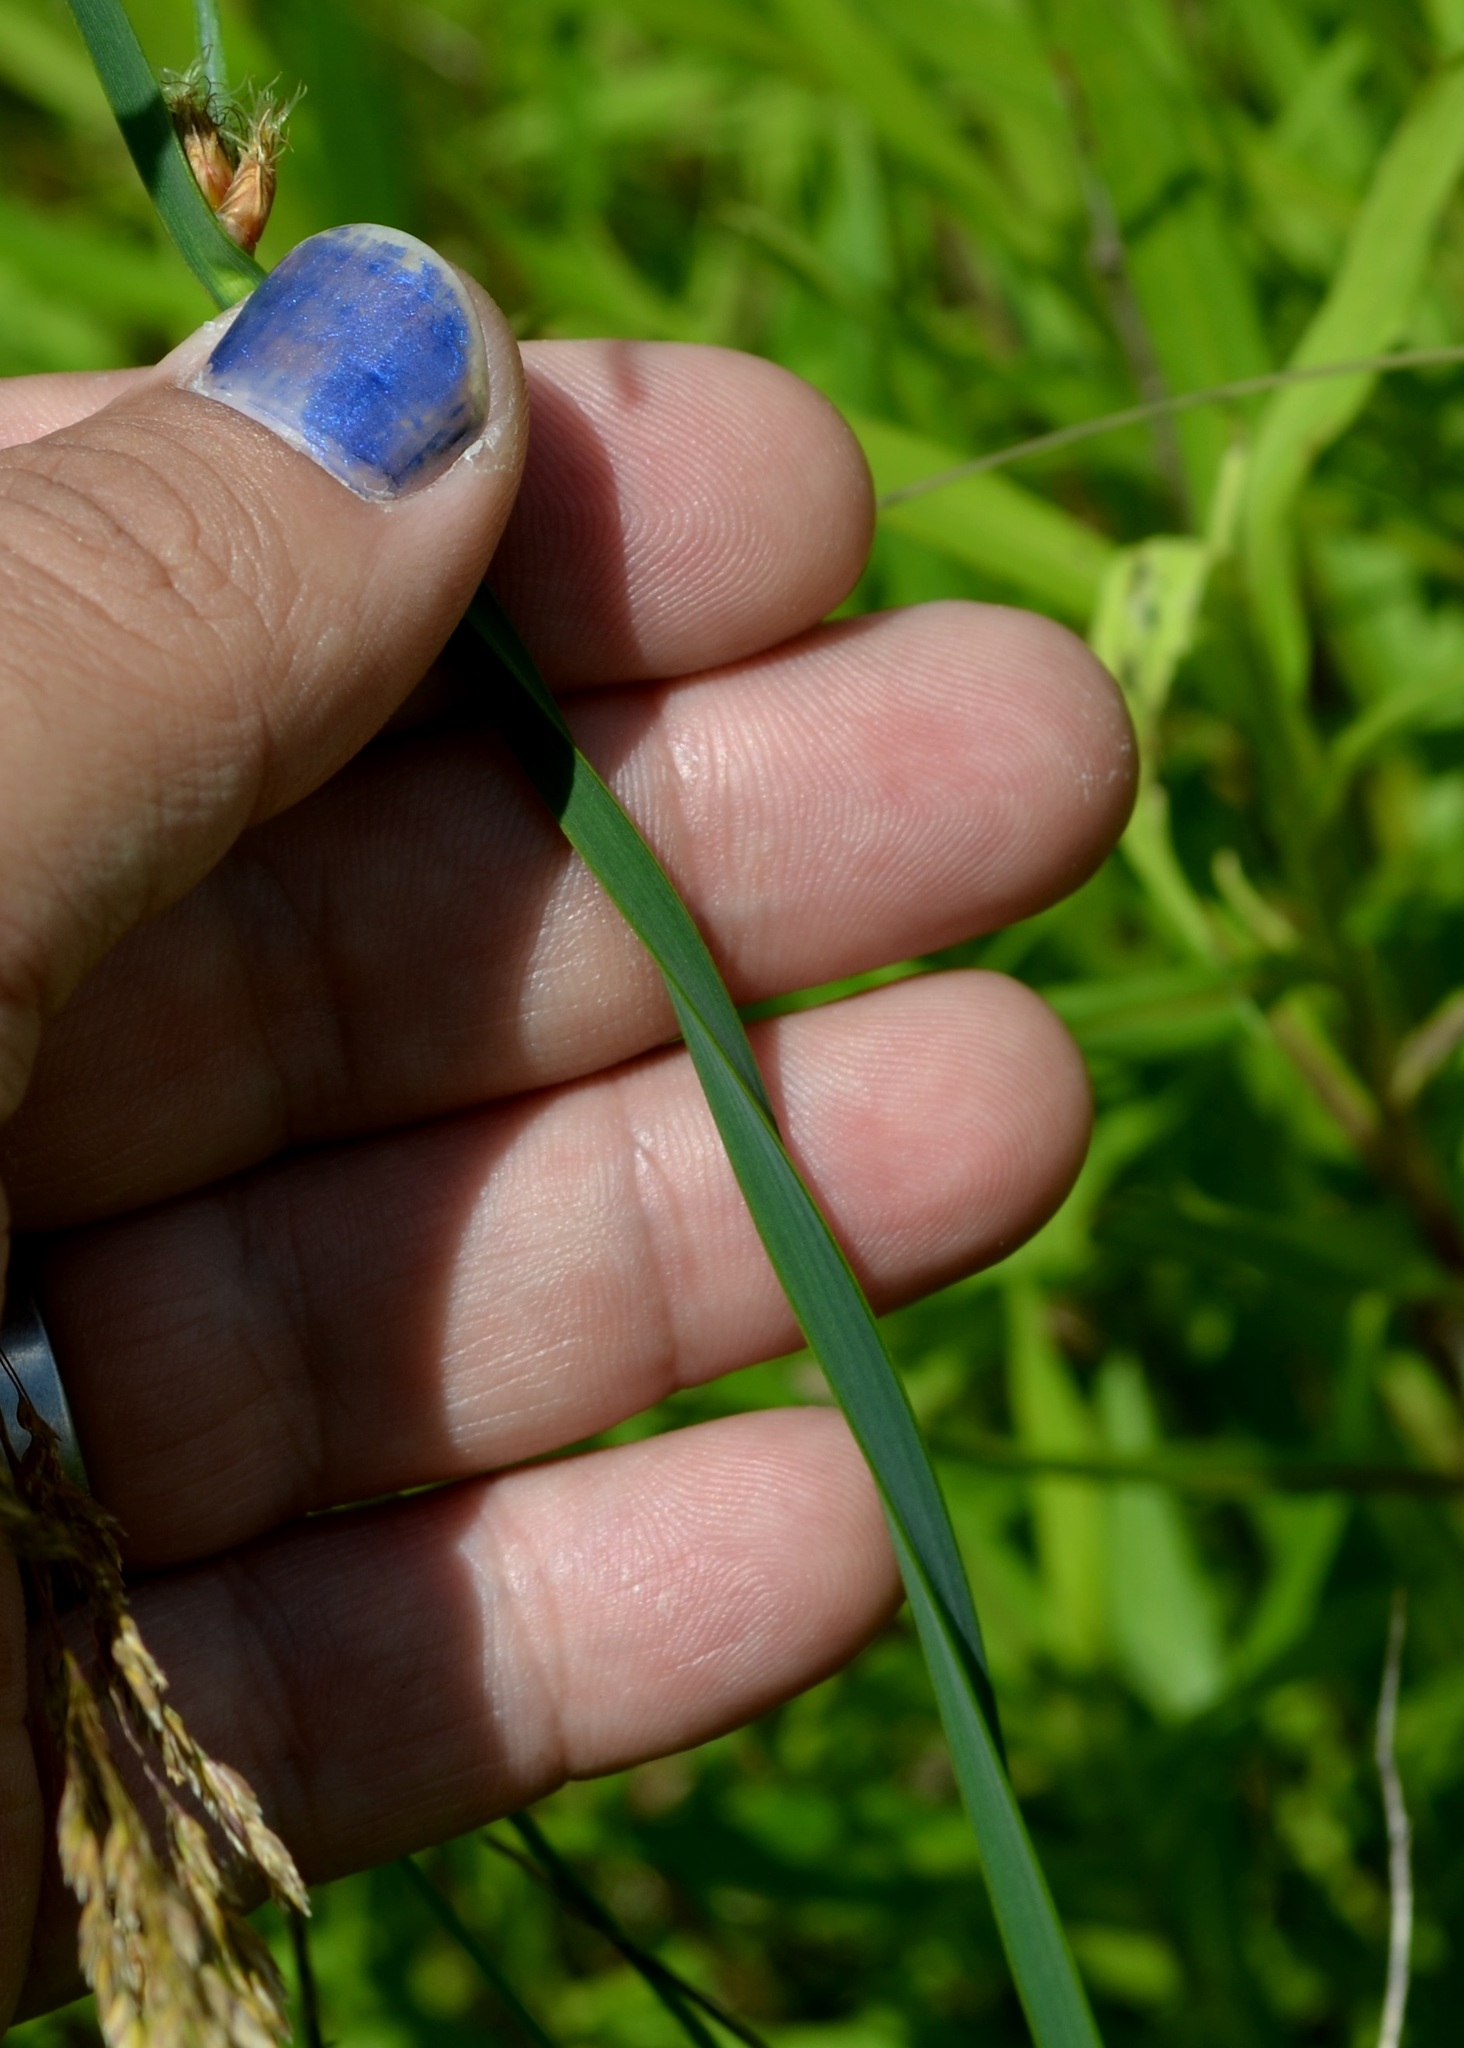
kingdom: Plantae
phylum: Tracheophyta
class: Liliopsida
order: Poales
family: Cyperaceae
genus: Schoenoplectus
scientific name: Schoenoplectus pungens
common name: Sharp club-rush
